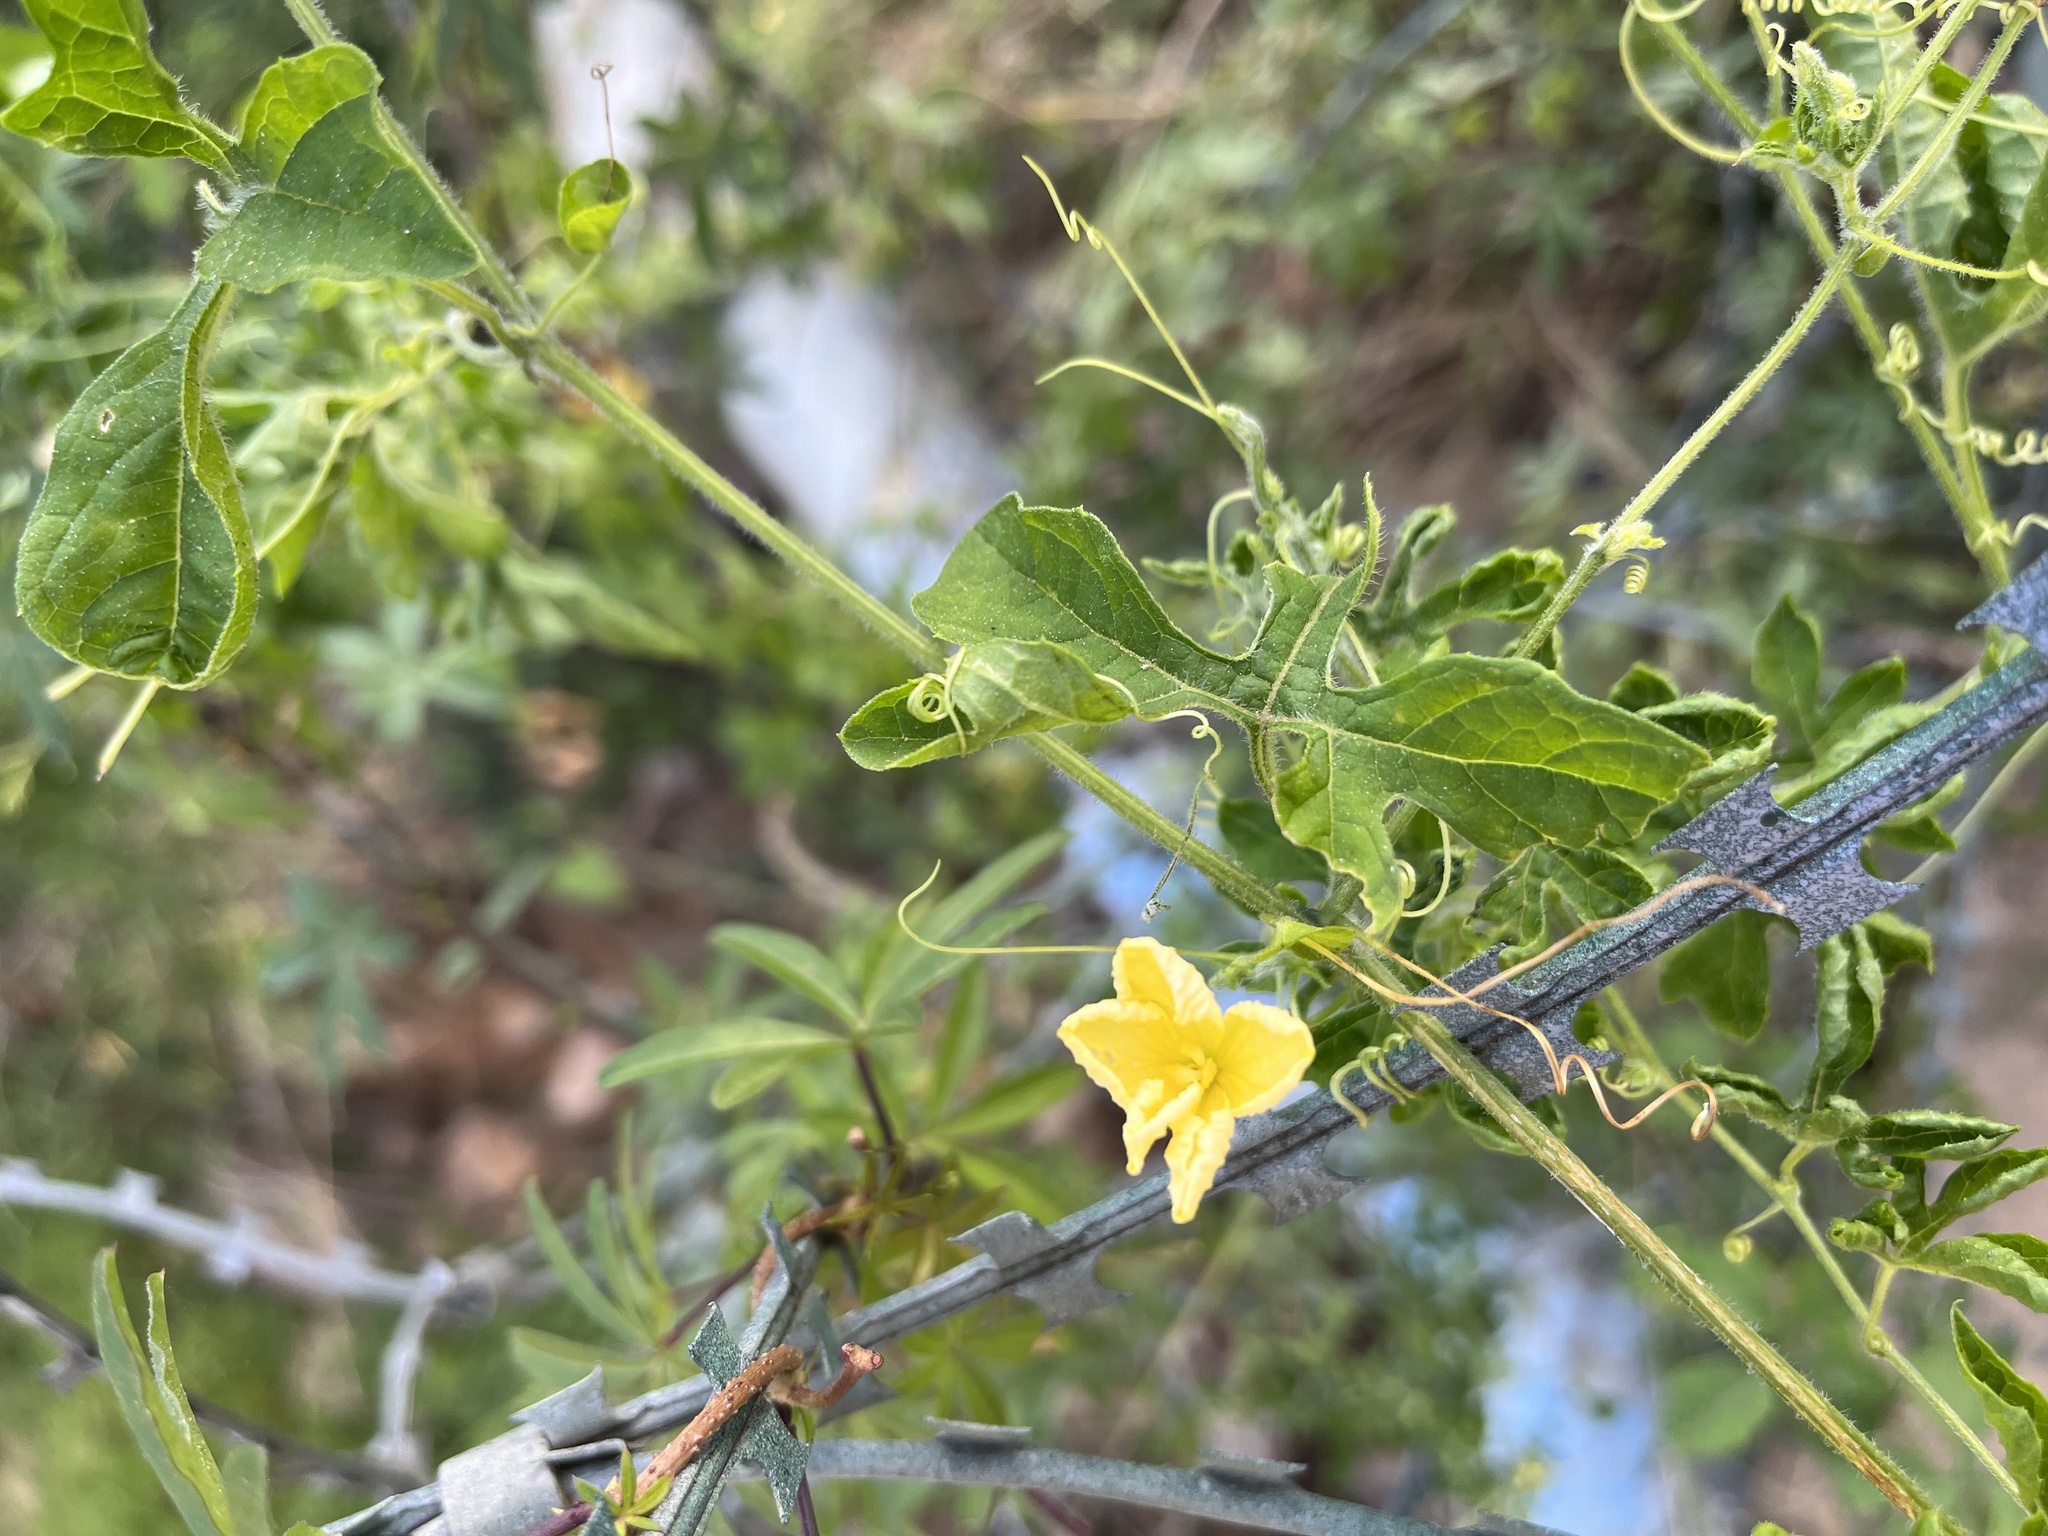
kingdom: Plantae
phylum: Tracheophyta
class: Magnoliopsida
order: Cucurbitales
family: Cucurbitaceae
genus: Momordica
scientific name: Momordica charantia
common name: Balsampear
